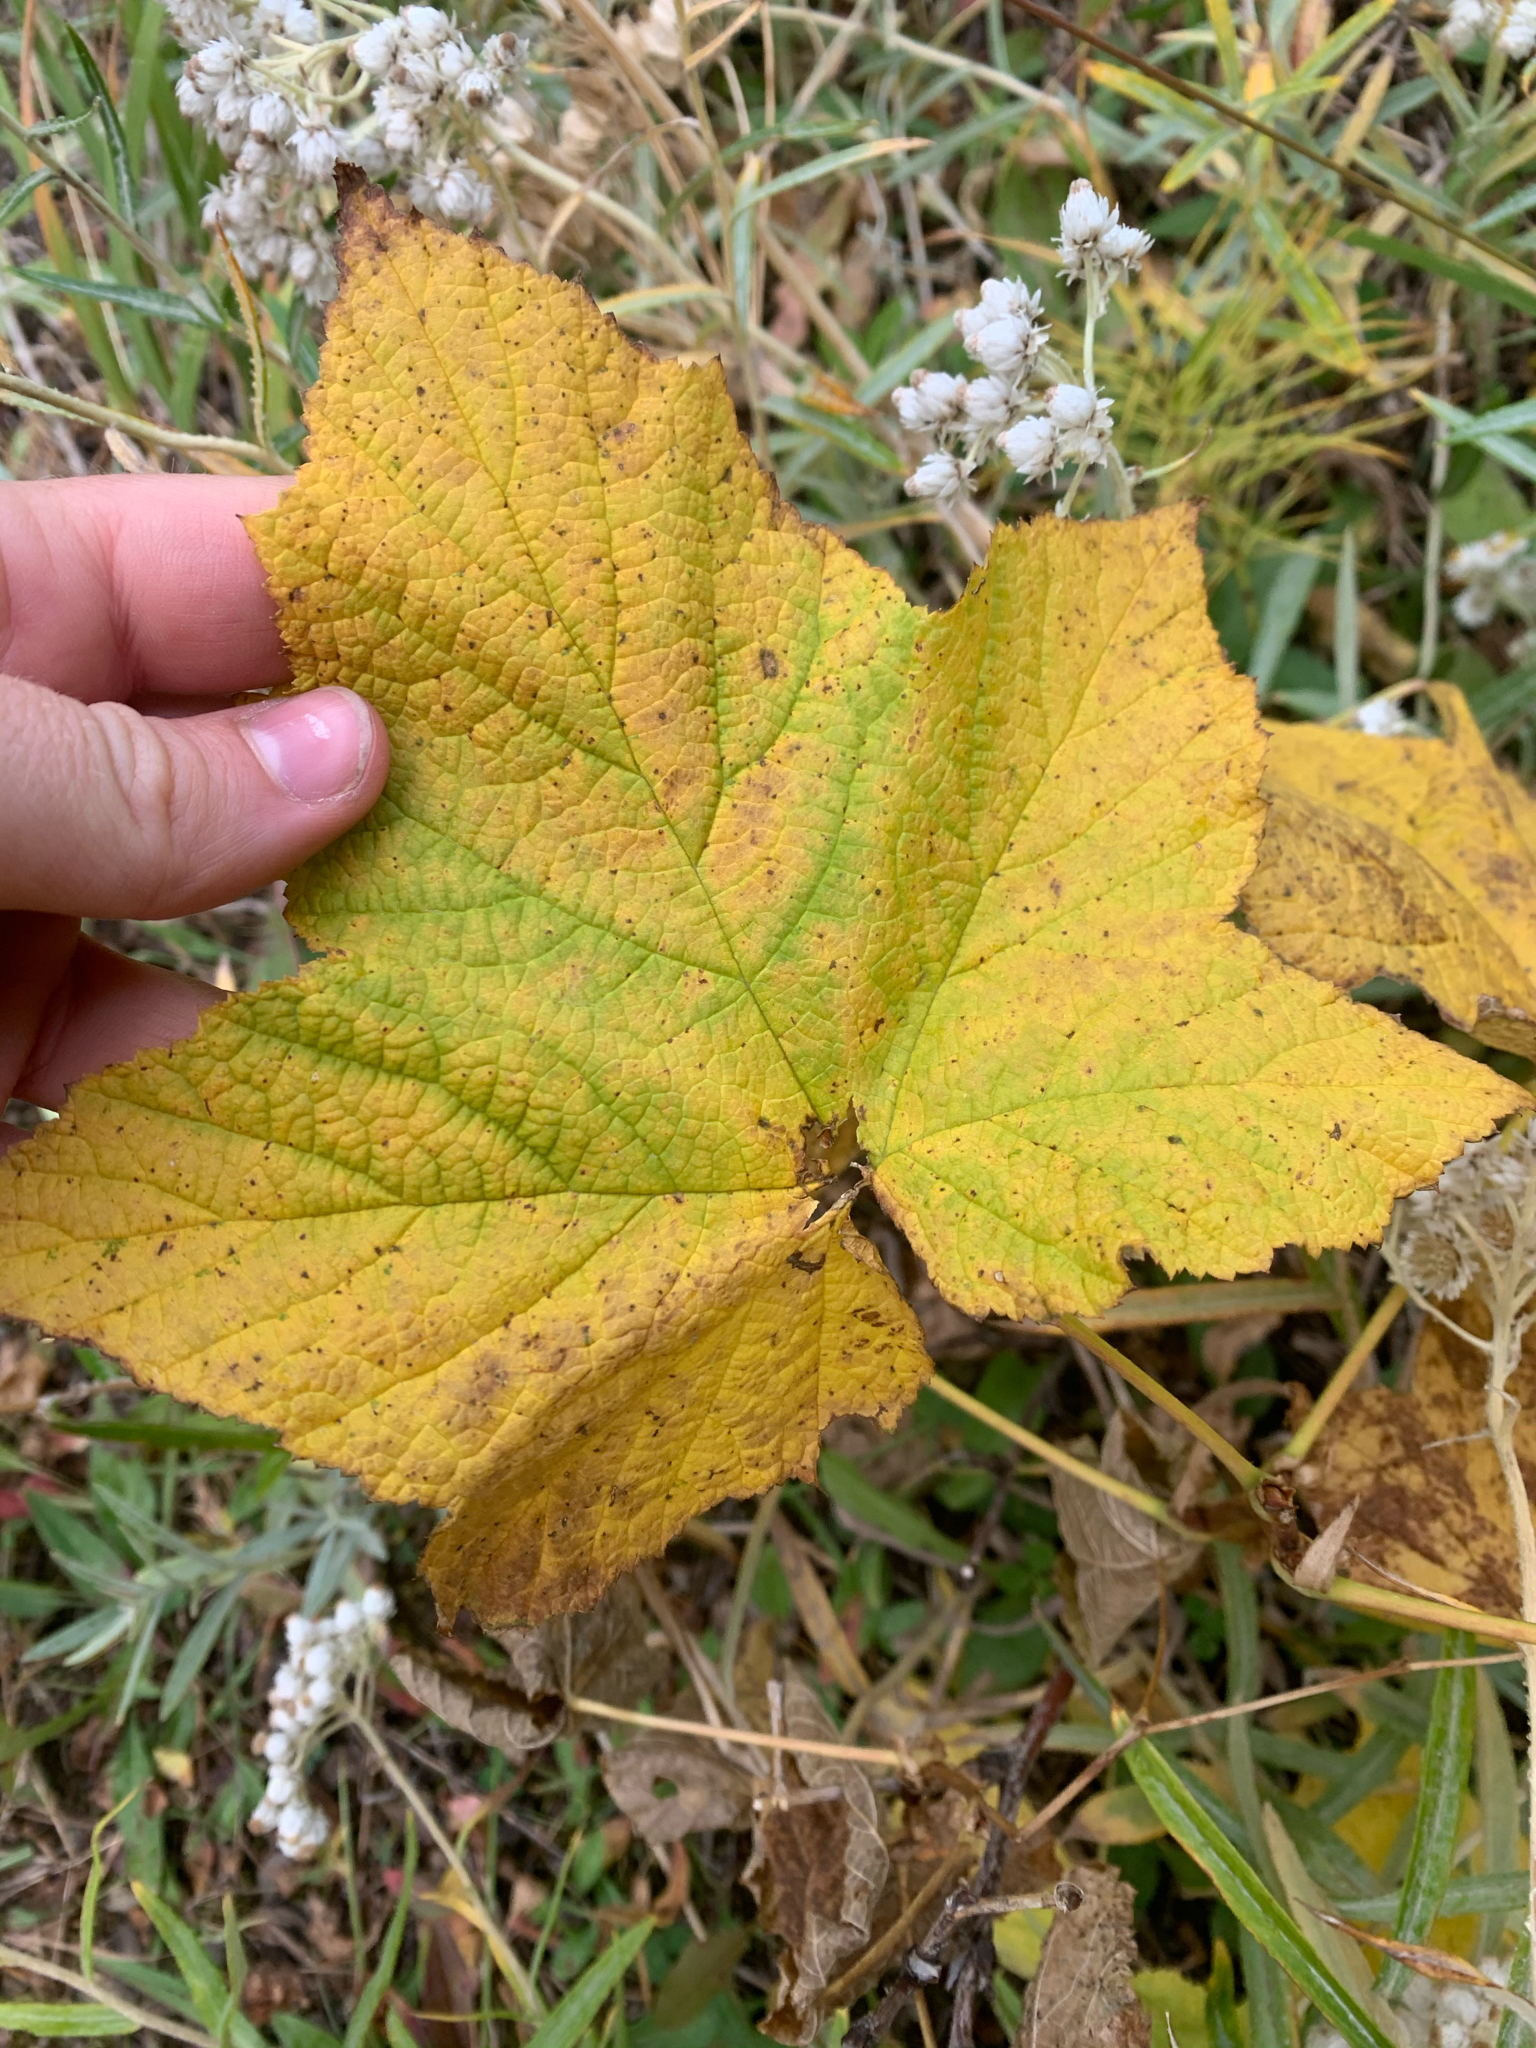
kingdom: Plantae
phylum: Tracheophyta
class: Magnoliopsida
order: Rosales
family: Rosaceae
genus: Rubus
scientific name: Rubus parviflorus
